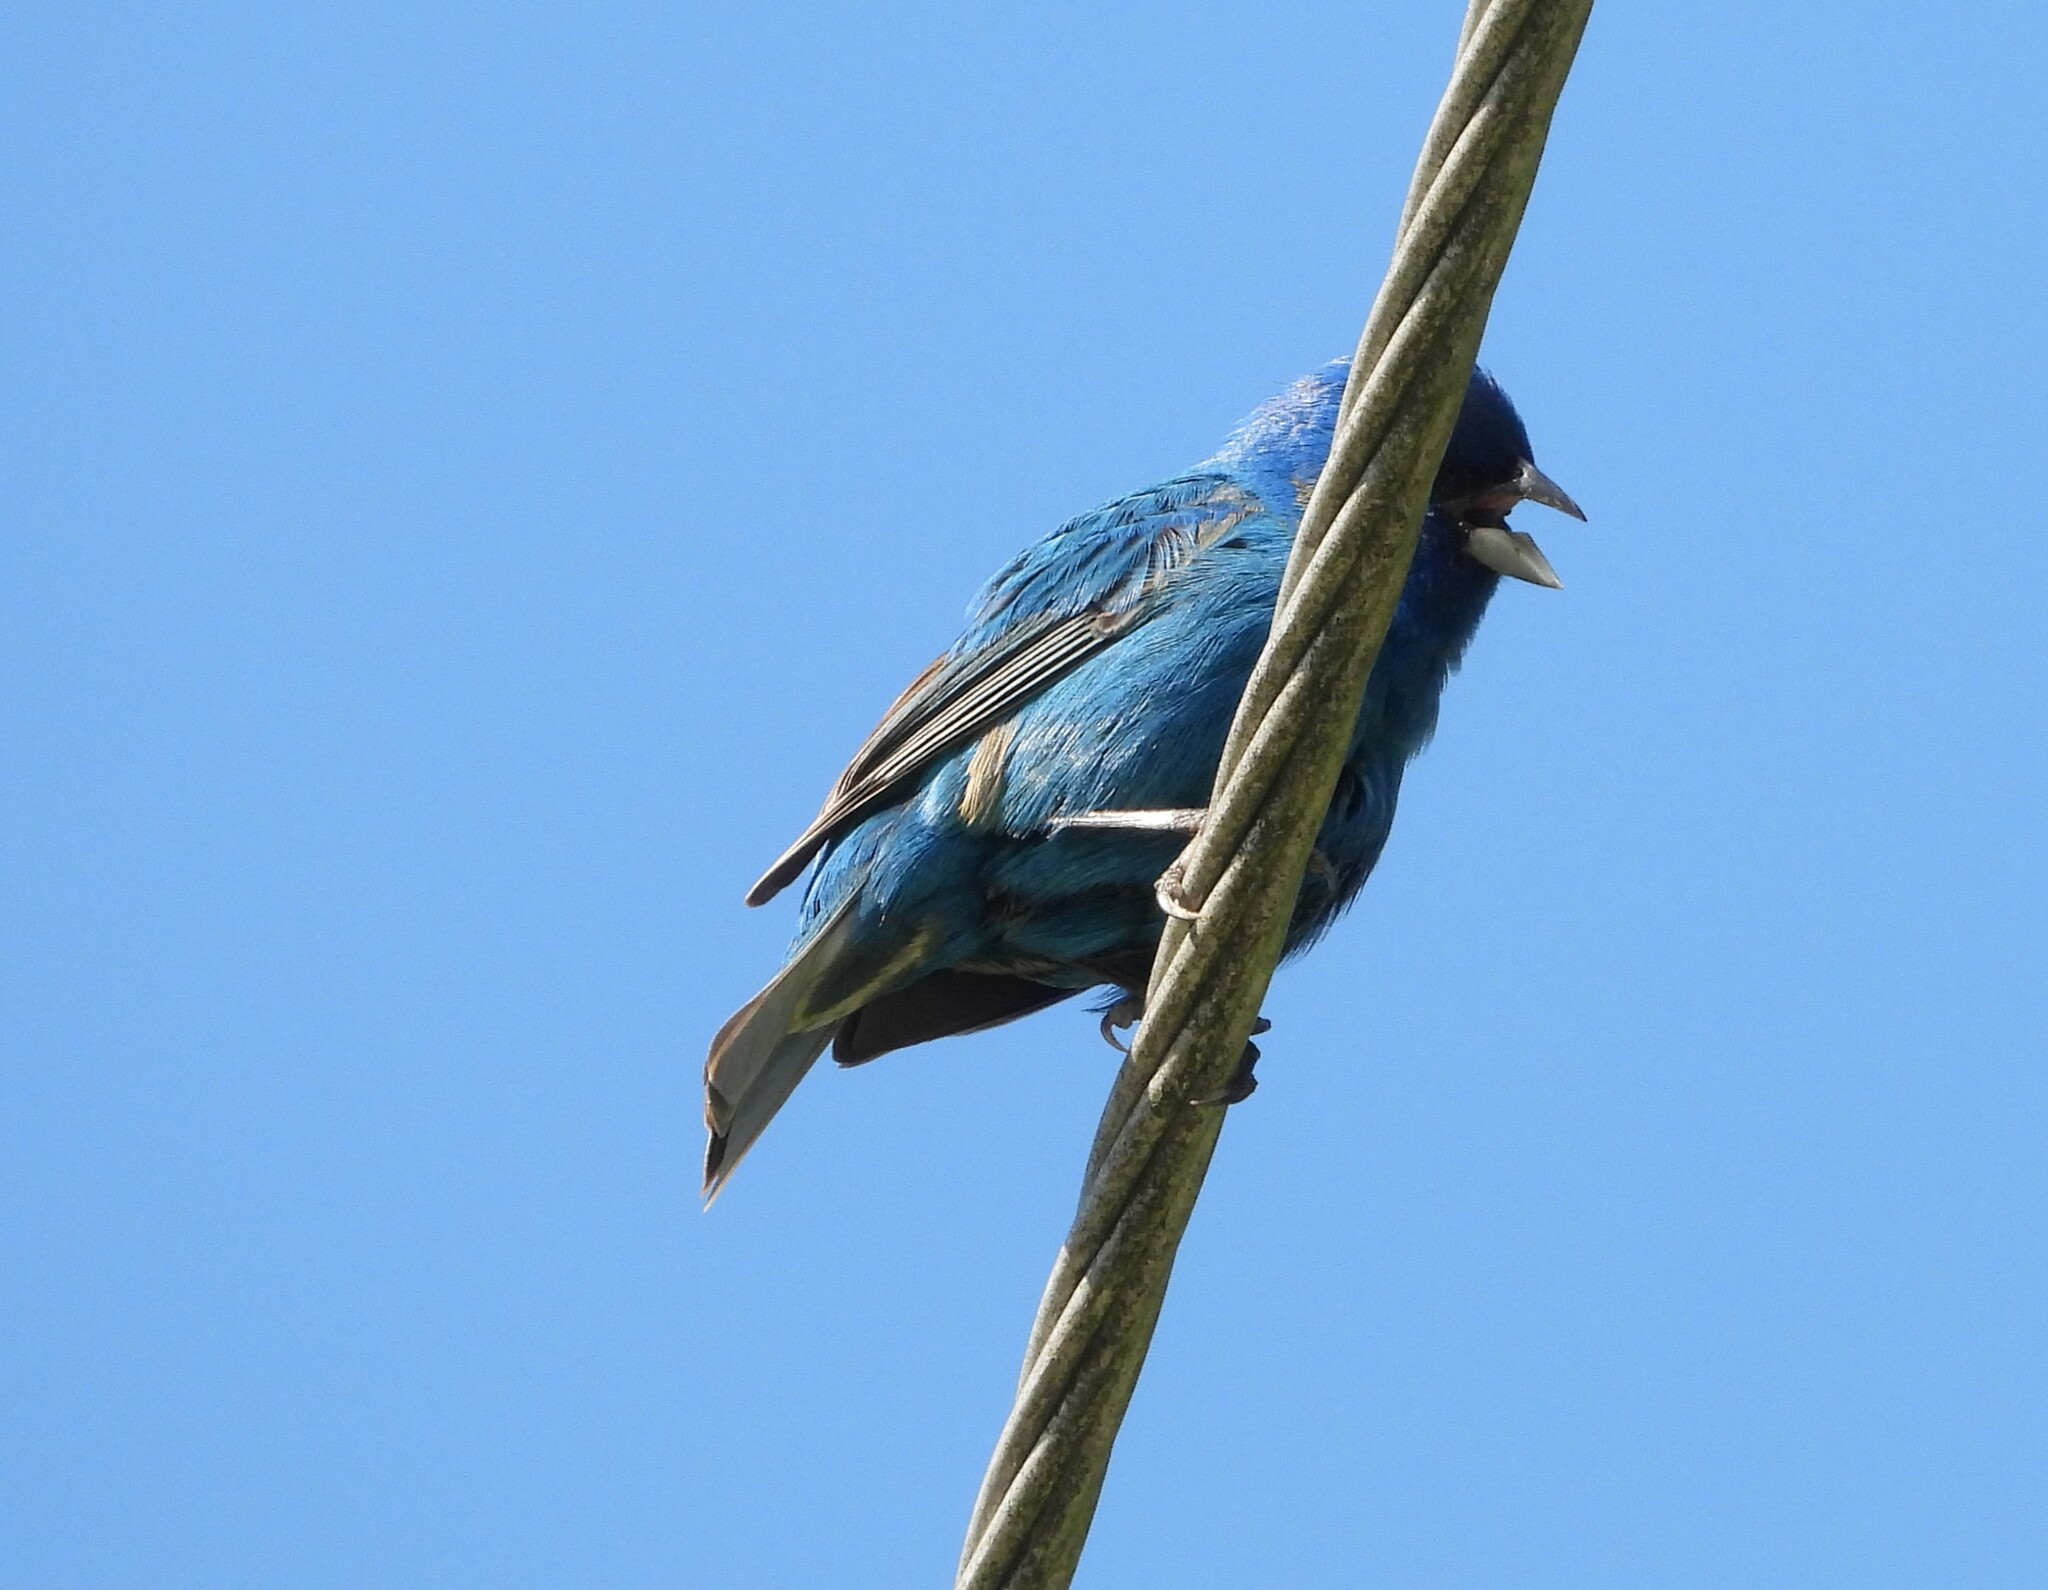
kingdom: Animalia
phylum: Chordata
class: Aves
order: Passeriformes
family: Cardinalidae
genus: Passerina
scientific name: Passerina cyanea
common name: Indigo bunting
